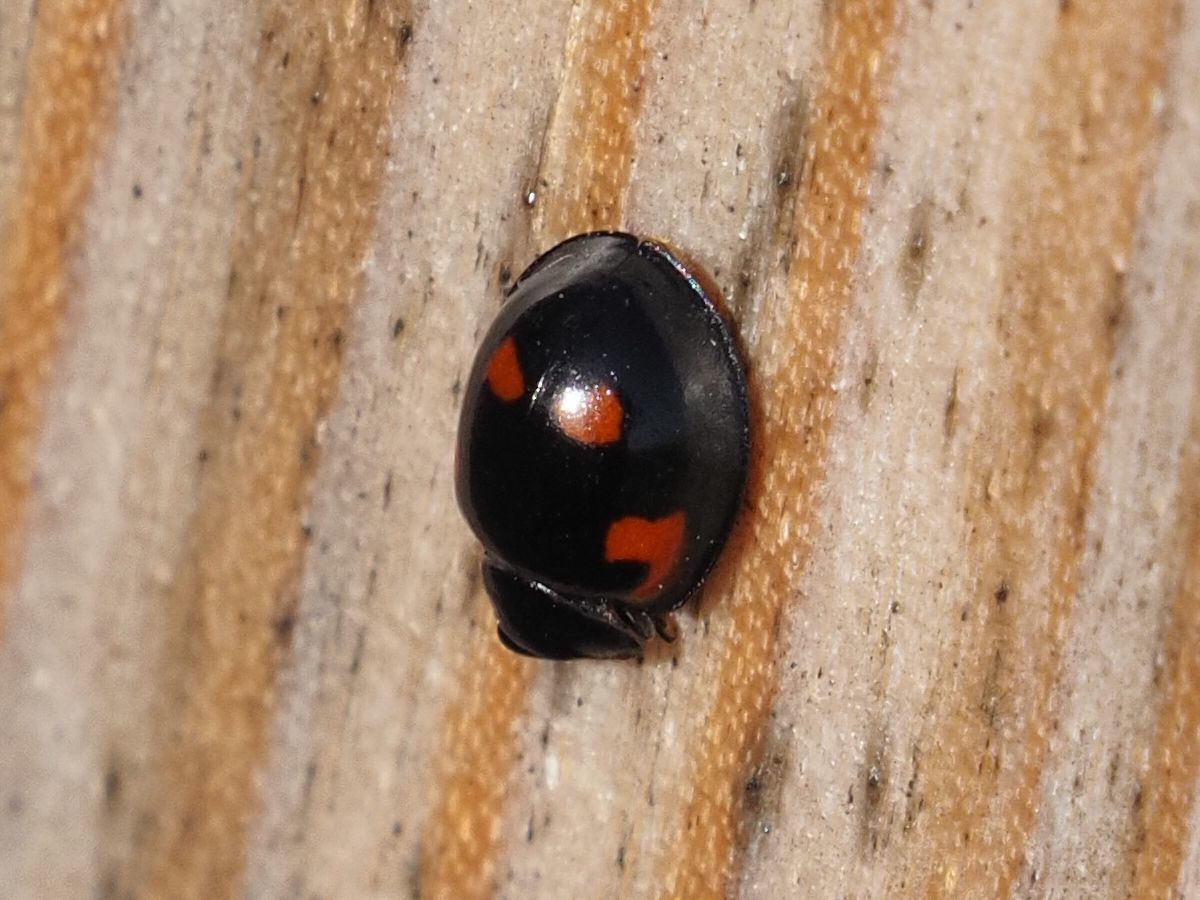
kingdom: Animalia
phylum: Arthropoda
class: Insecta
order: Coleoptera
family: Coccinellidae
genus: Brumus
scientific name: Brumus quadripustulatus
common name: Ladybird beetle
